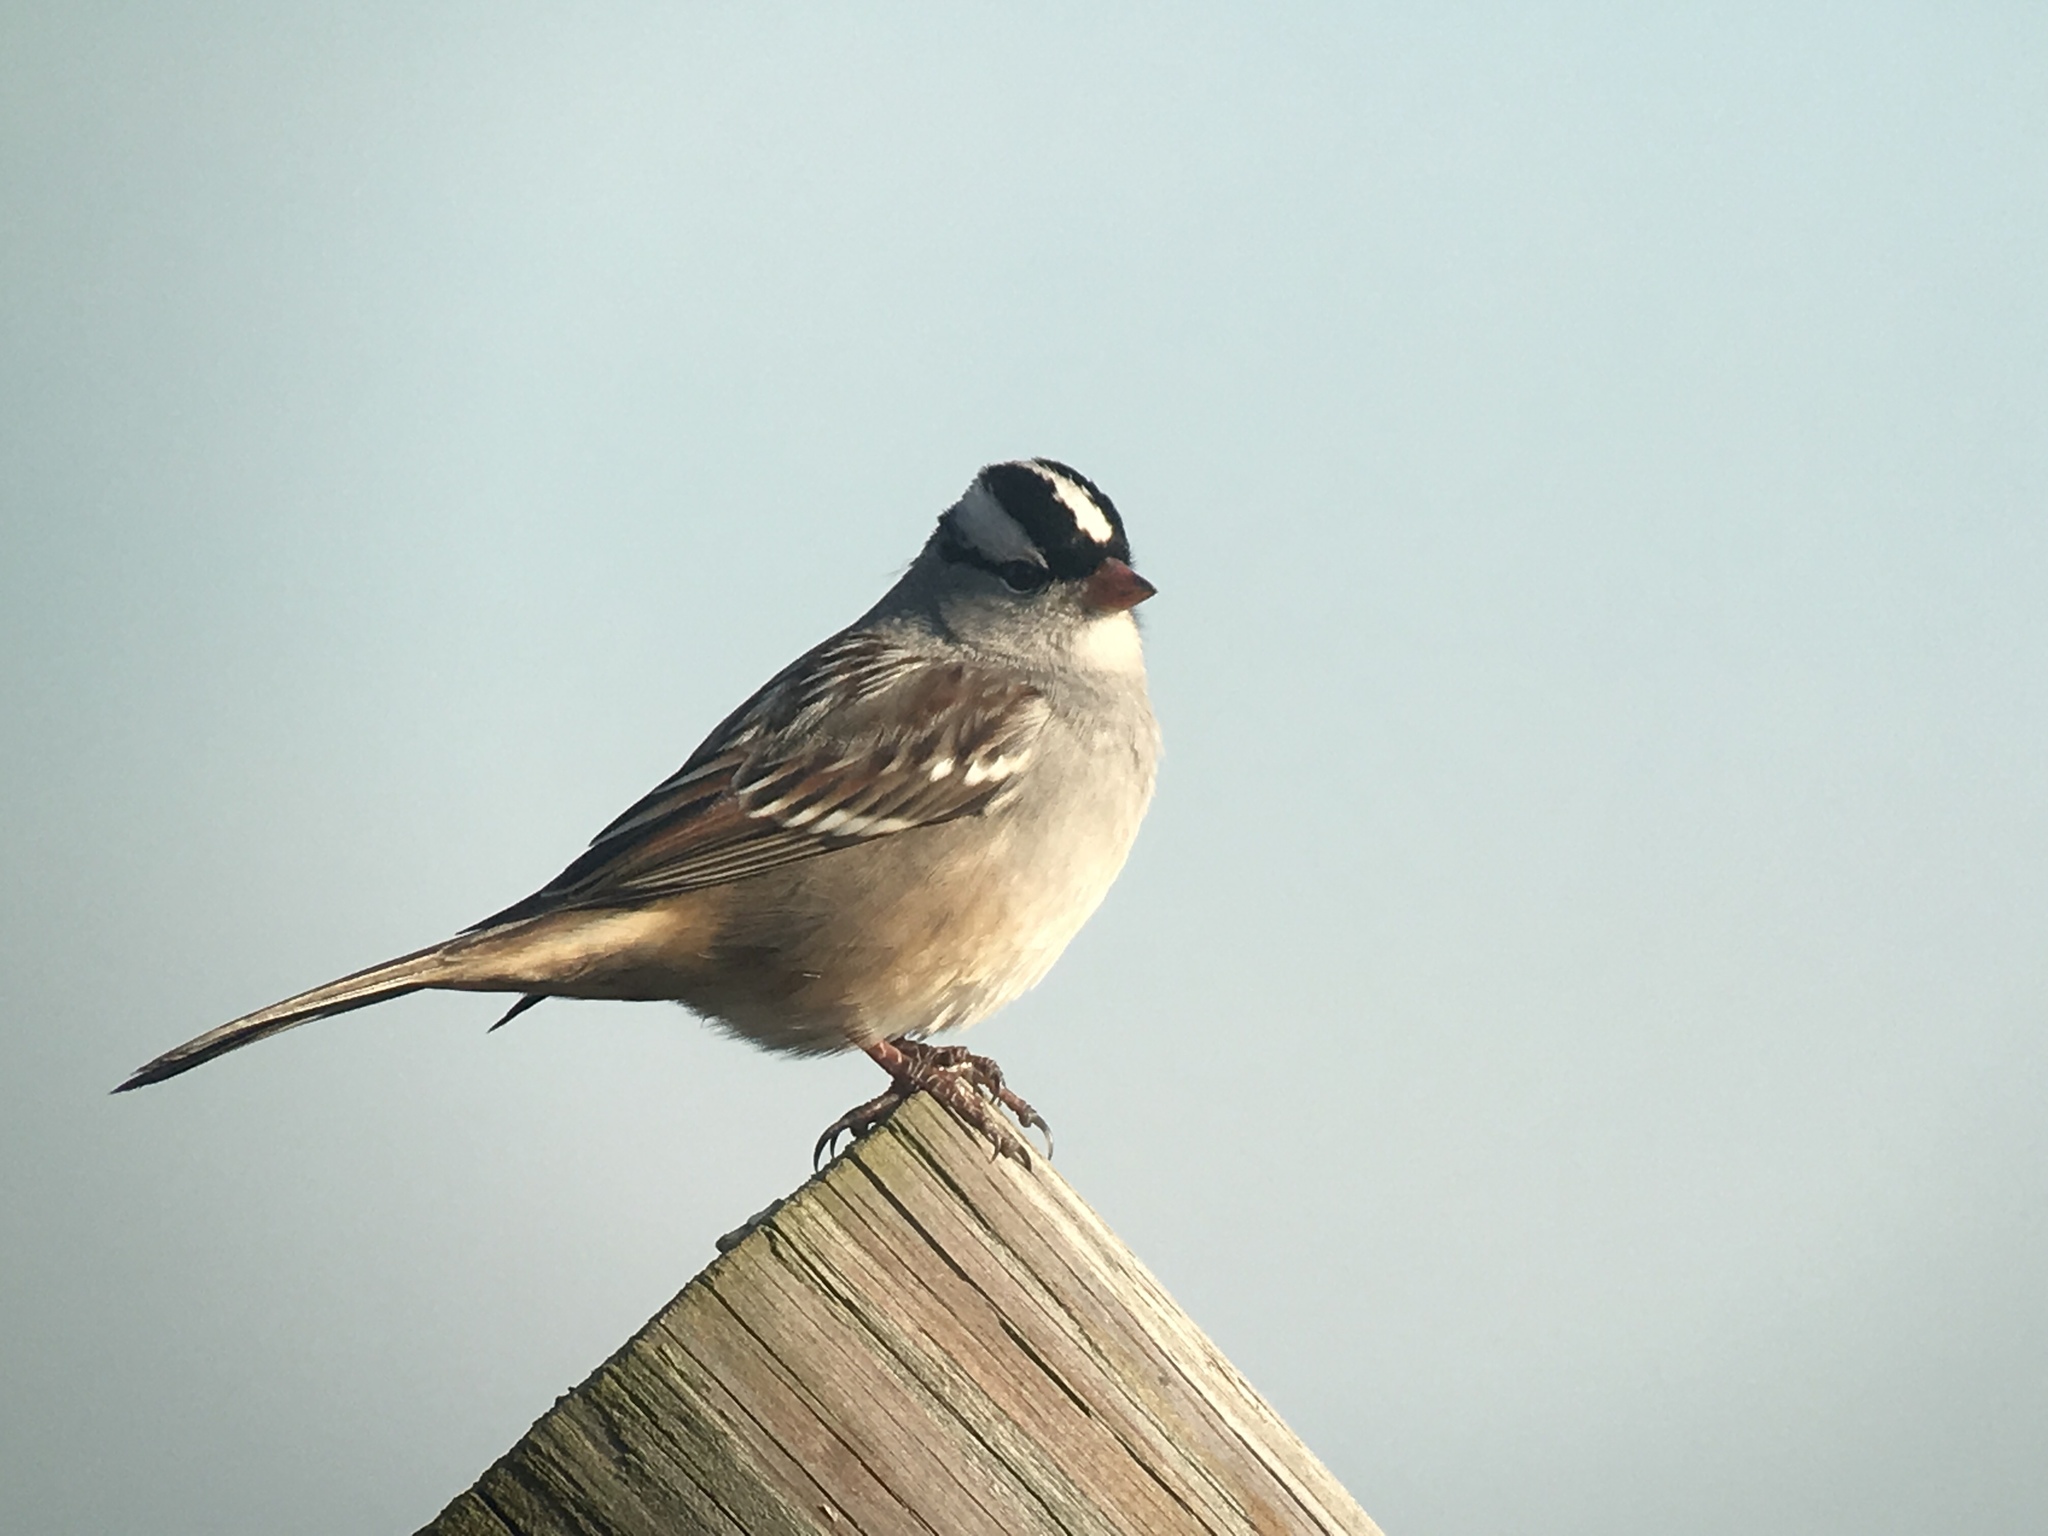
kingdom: Animalia
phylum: Chordata
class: Aves
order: Passeriformes
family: Passerellidae
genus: Zonotrichia
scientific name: Zonotrichia leucophrys
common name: White-crowned sparrow
